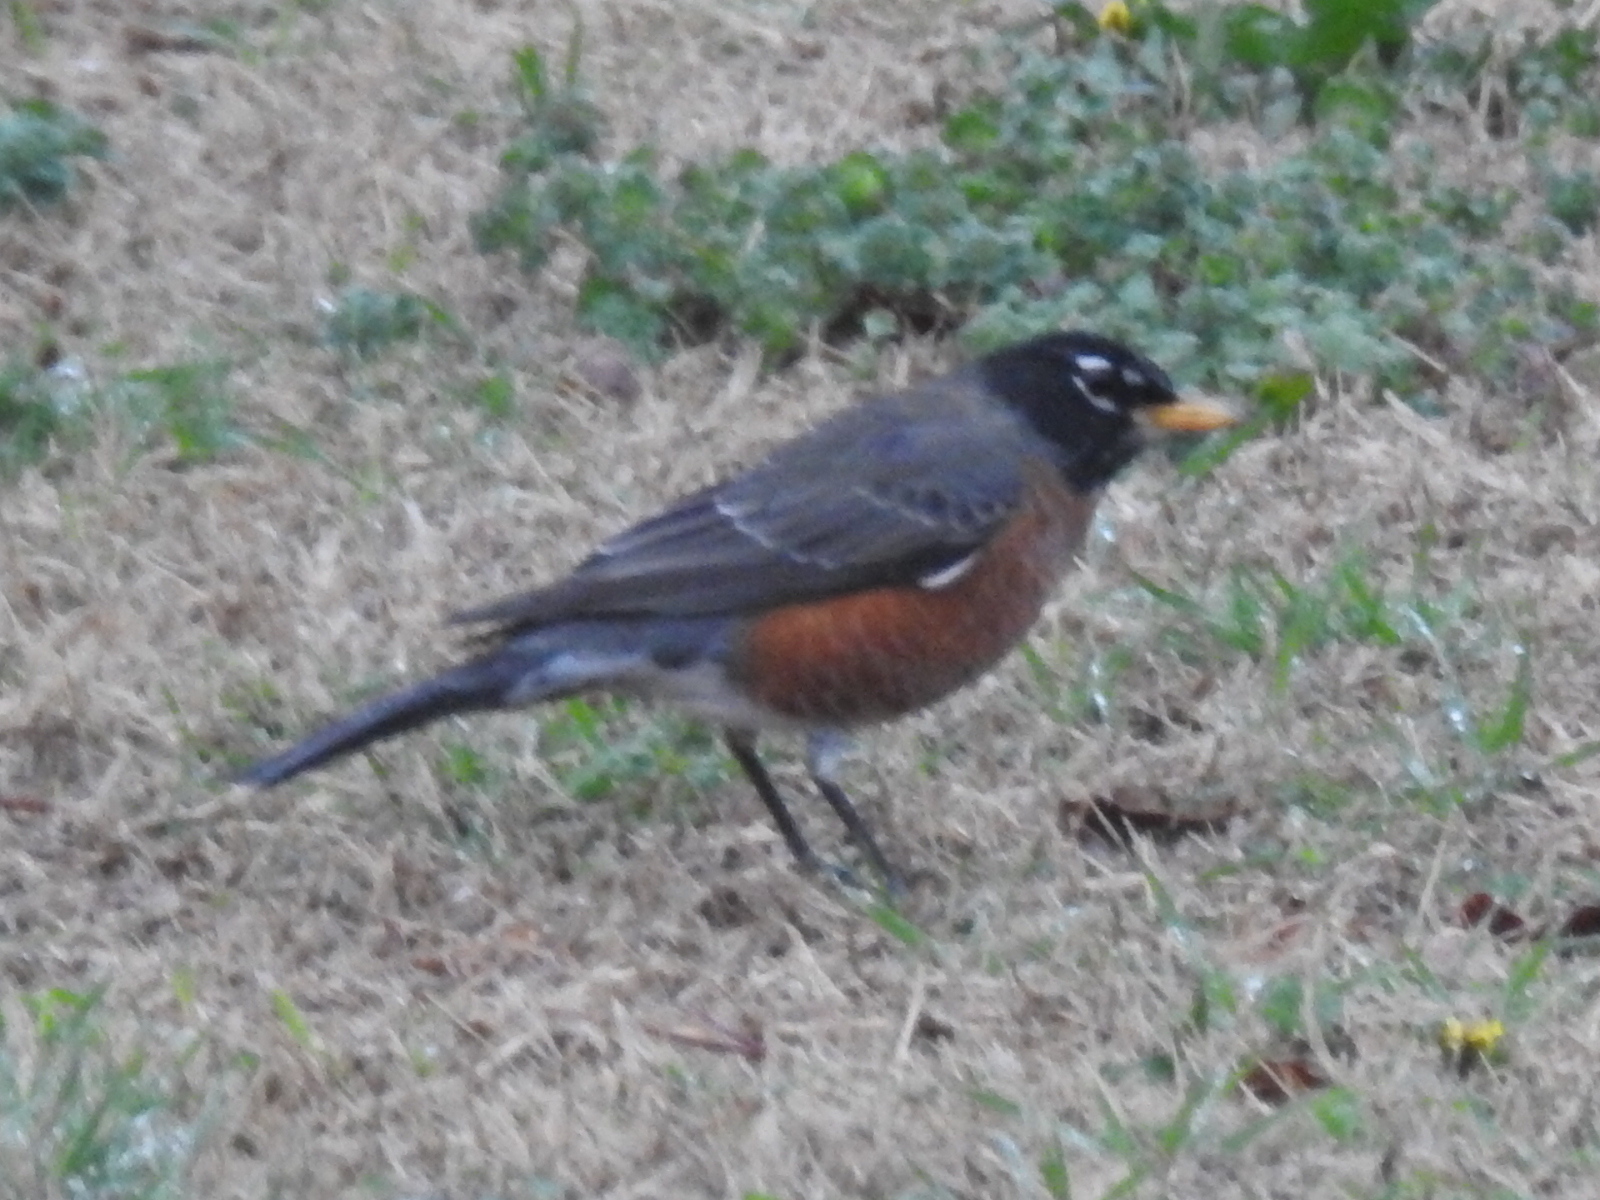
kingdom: Animalia
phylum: Chordata
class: Aves
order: Passeriformes
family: Turdidae
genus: Turdus
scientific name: Turdus migratorius
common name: American robin
